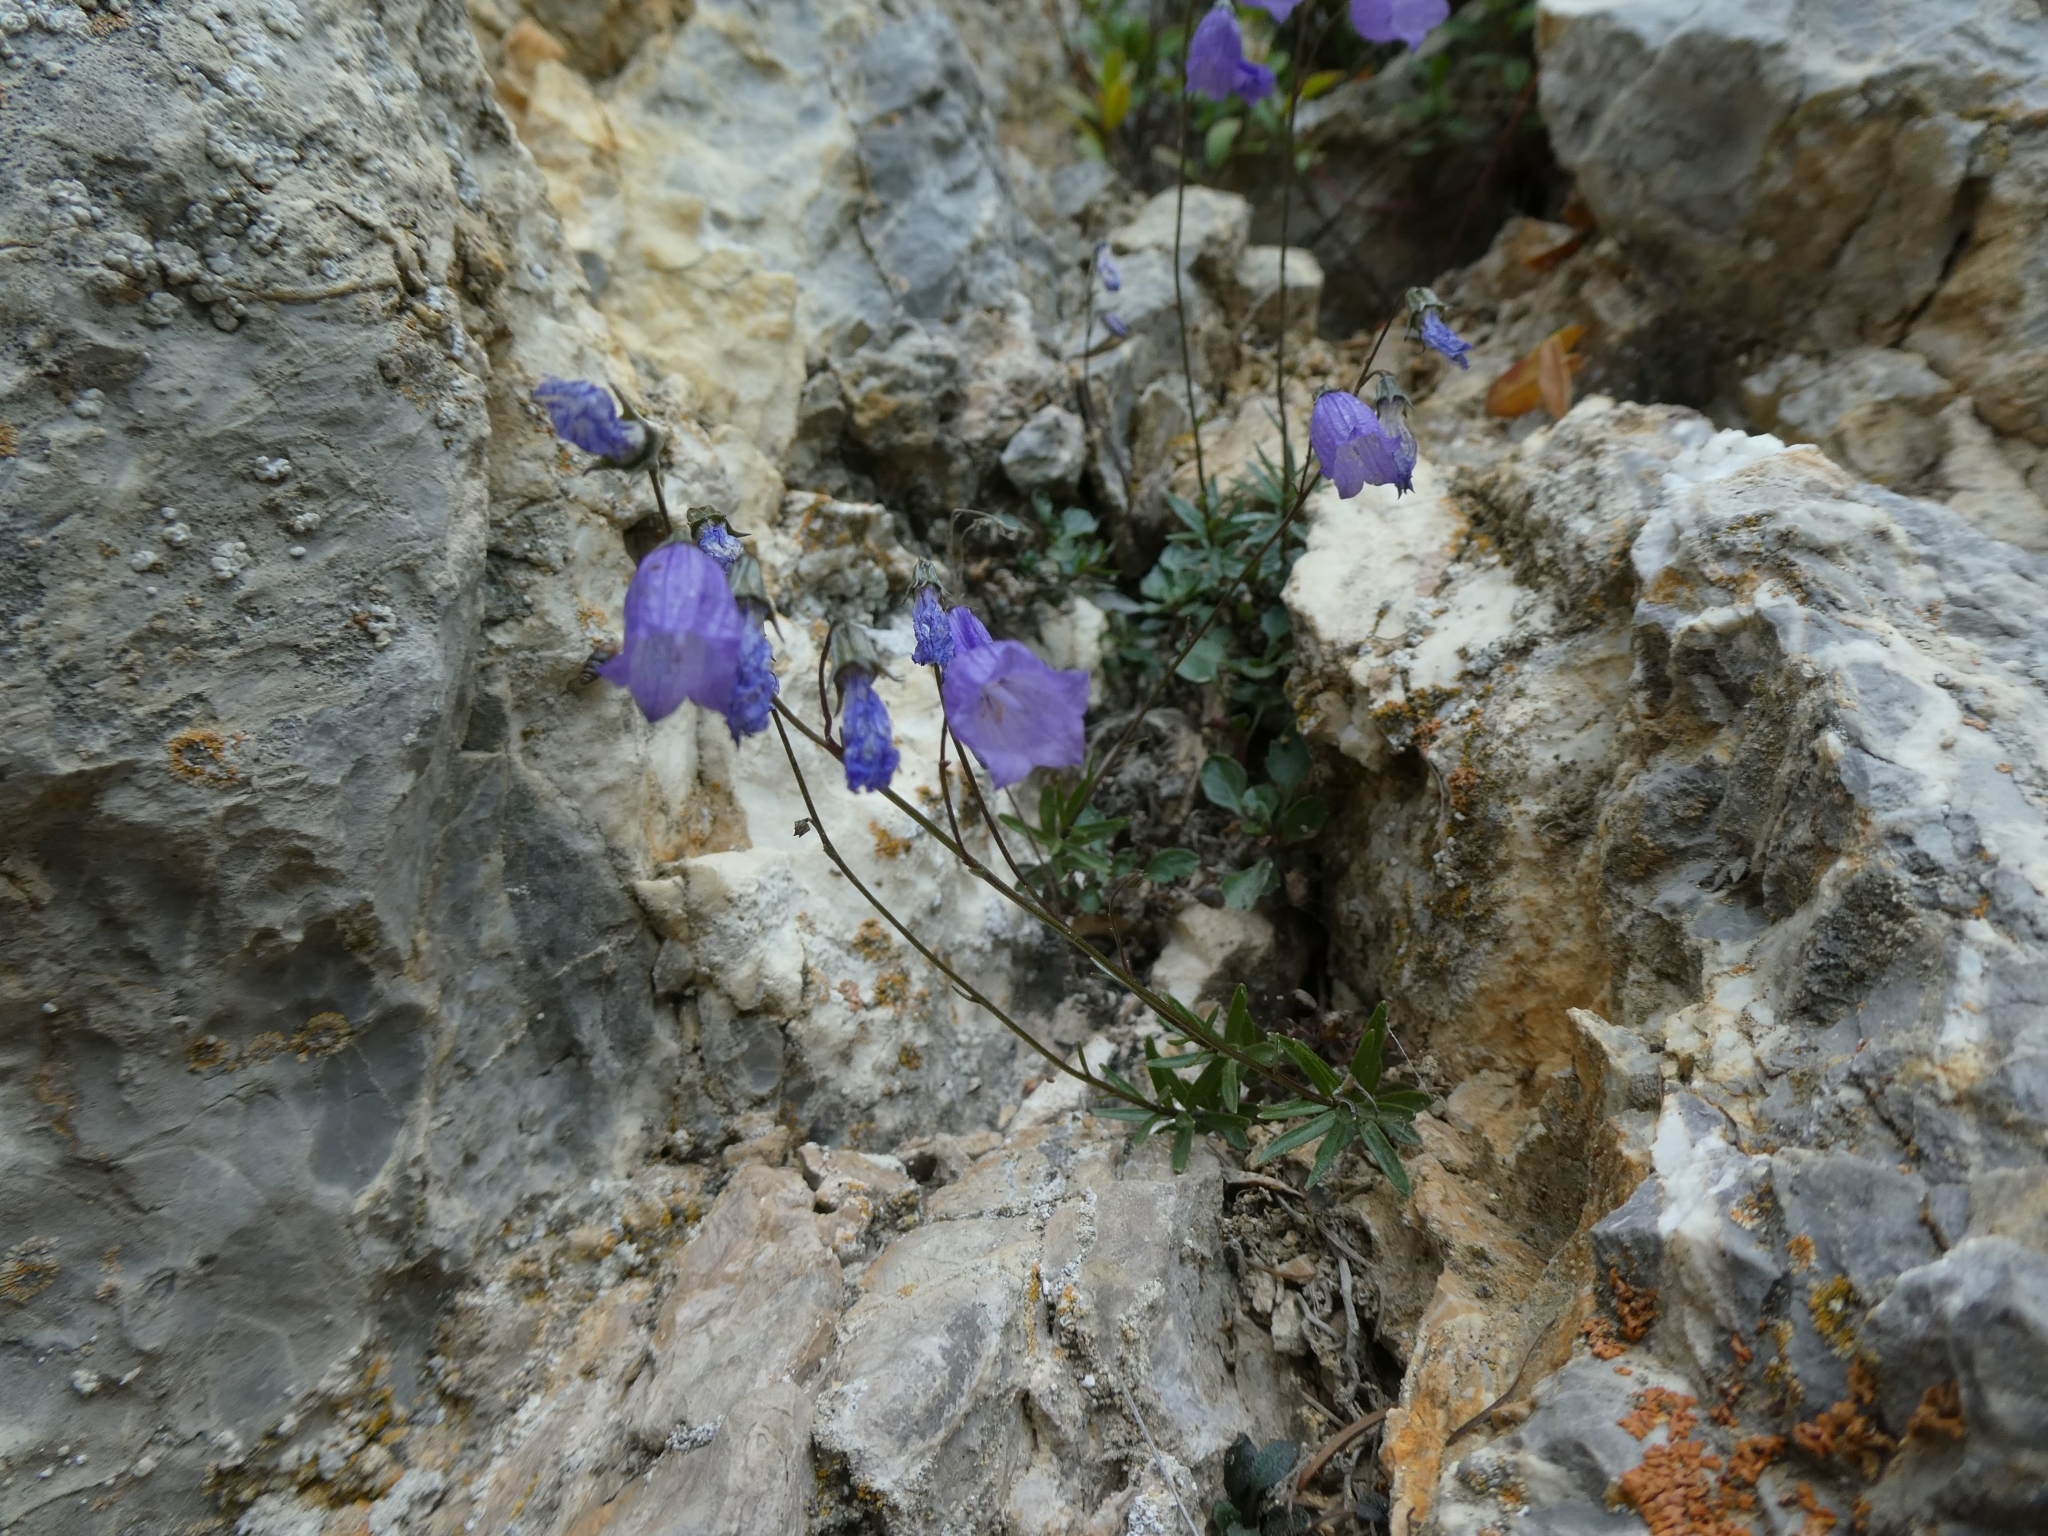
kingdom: Plantae
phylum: Tracheophyta
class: Magnoliopsida
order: Asterales
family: Campanulaceae
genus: Campanula
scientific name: Campanula cespitosa
